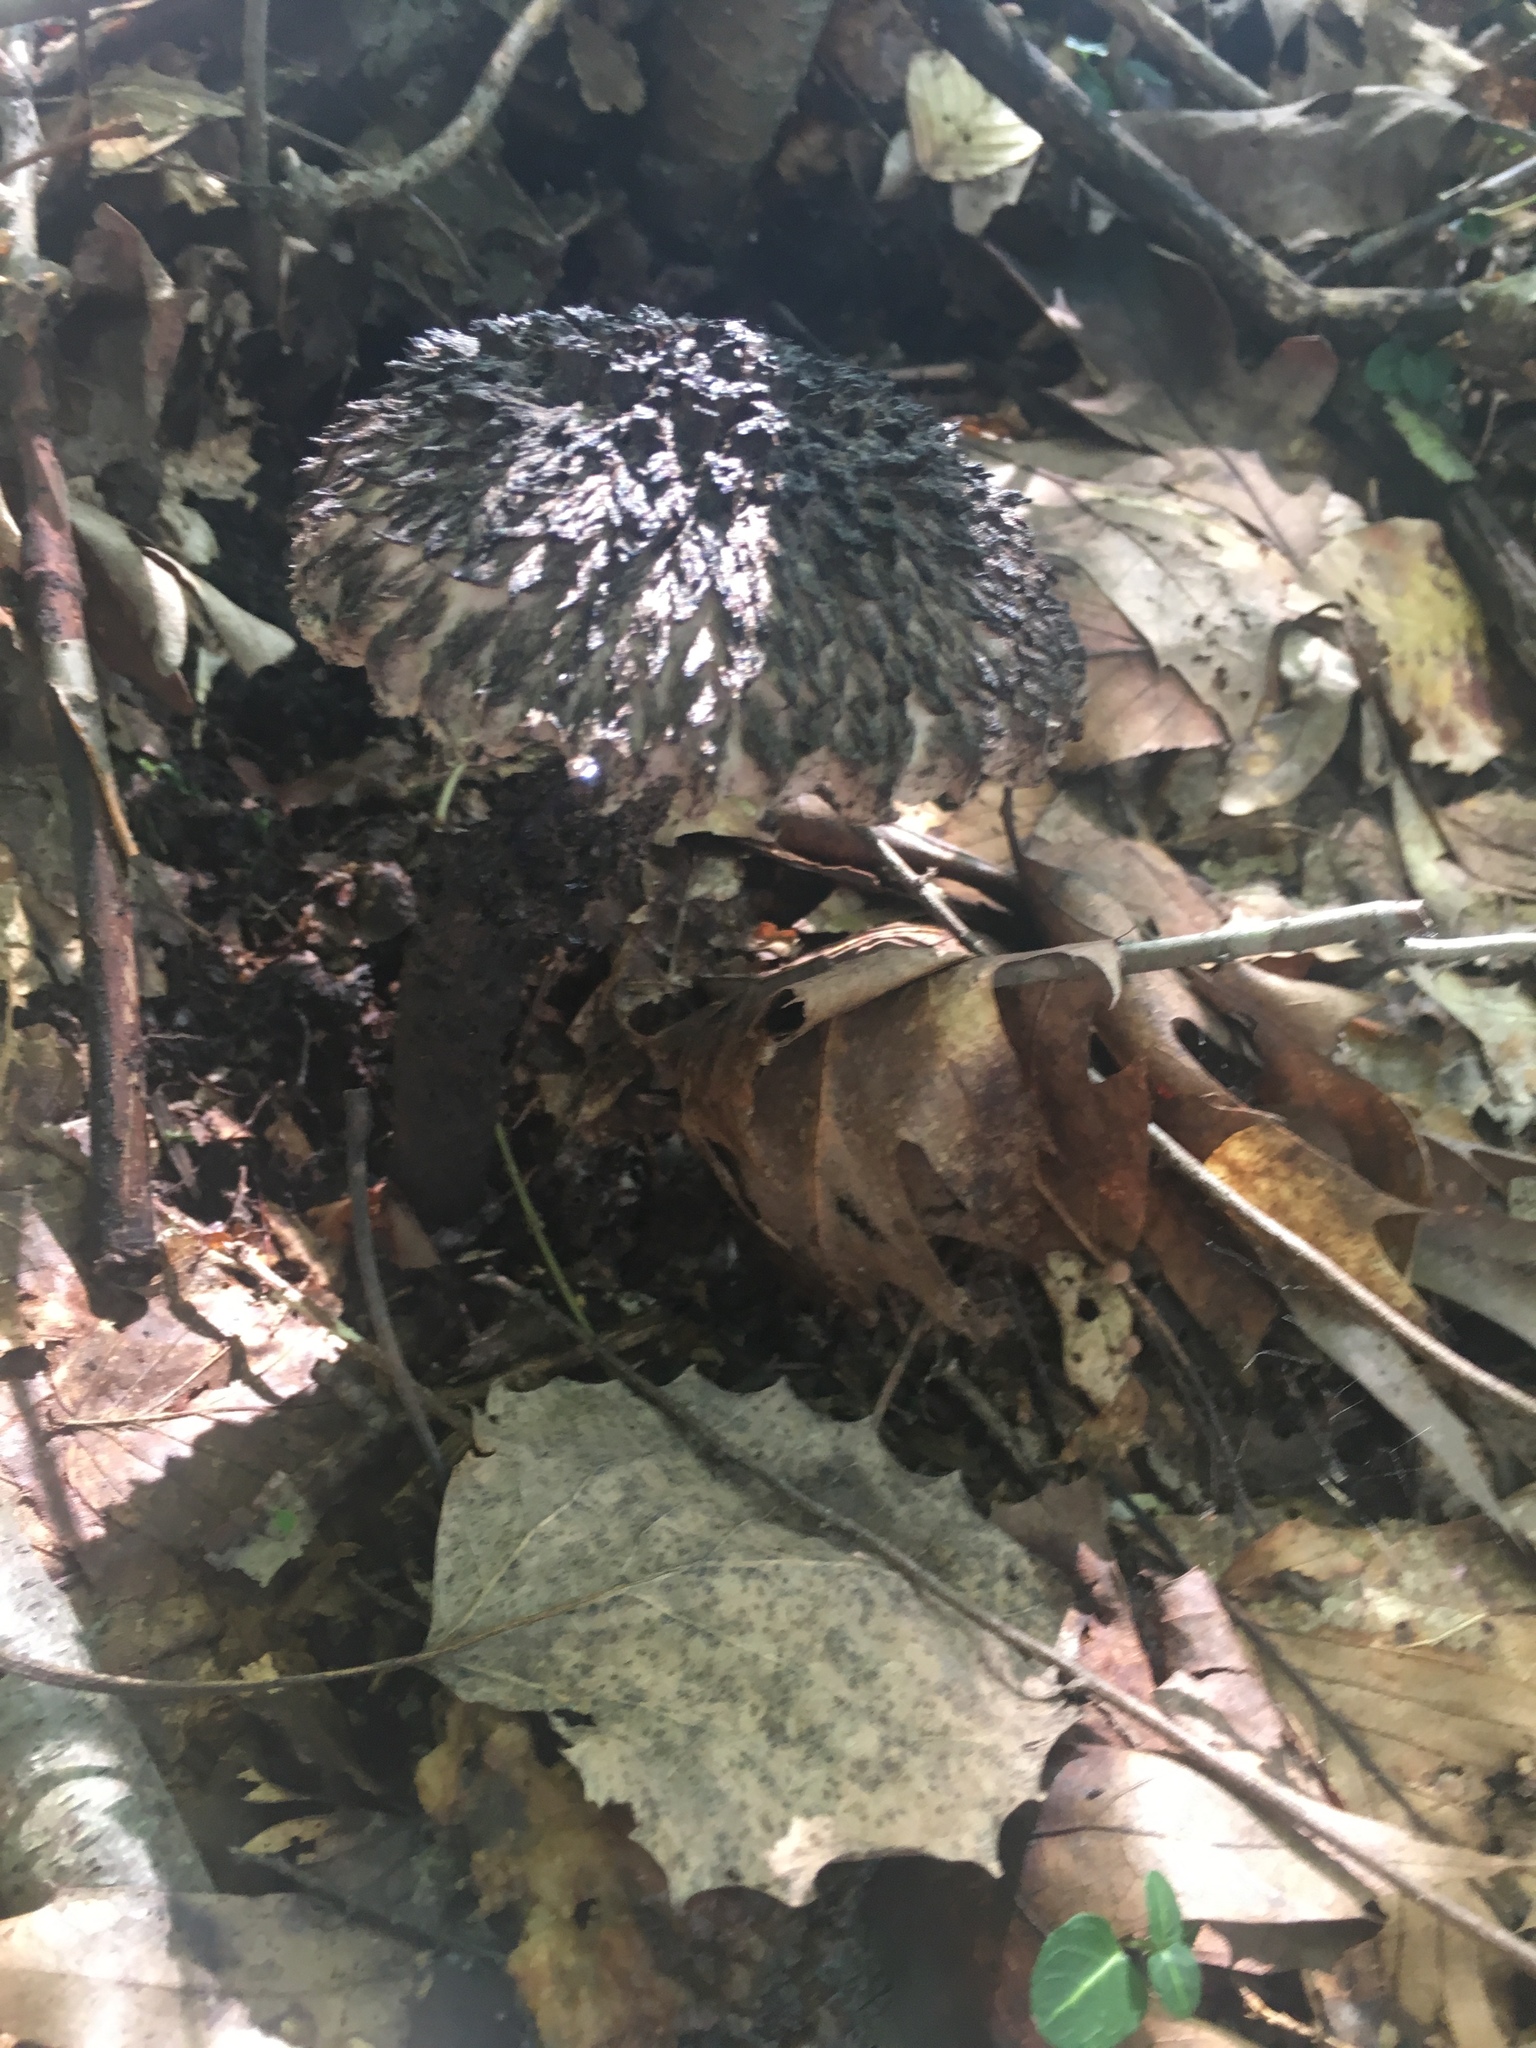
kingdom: Fungi
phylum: Basidiomycota
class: Agaricomycetes
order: Boletales
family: Boletaceae
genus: Strobilomyces
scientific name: Strobilomyces strobilaceus
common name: Old man of the woods
